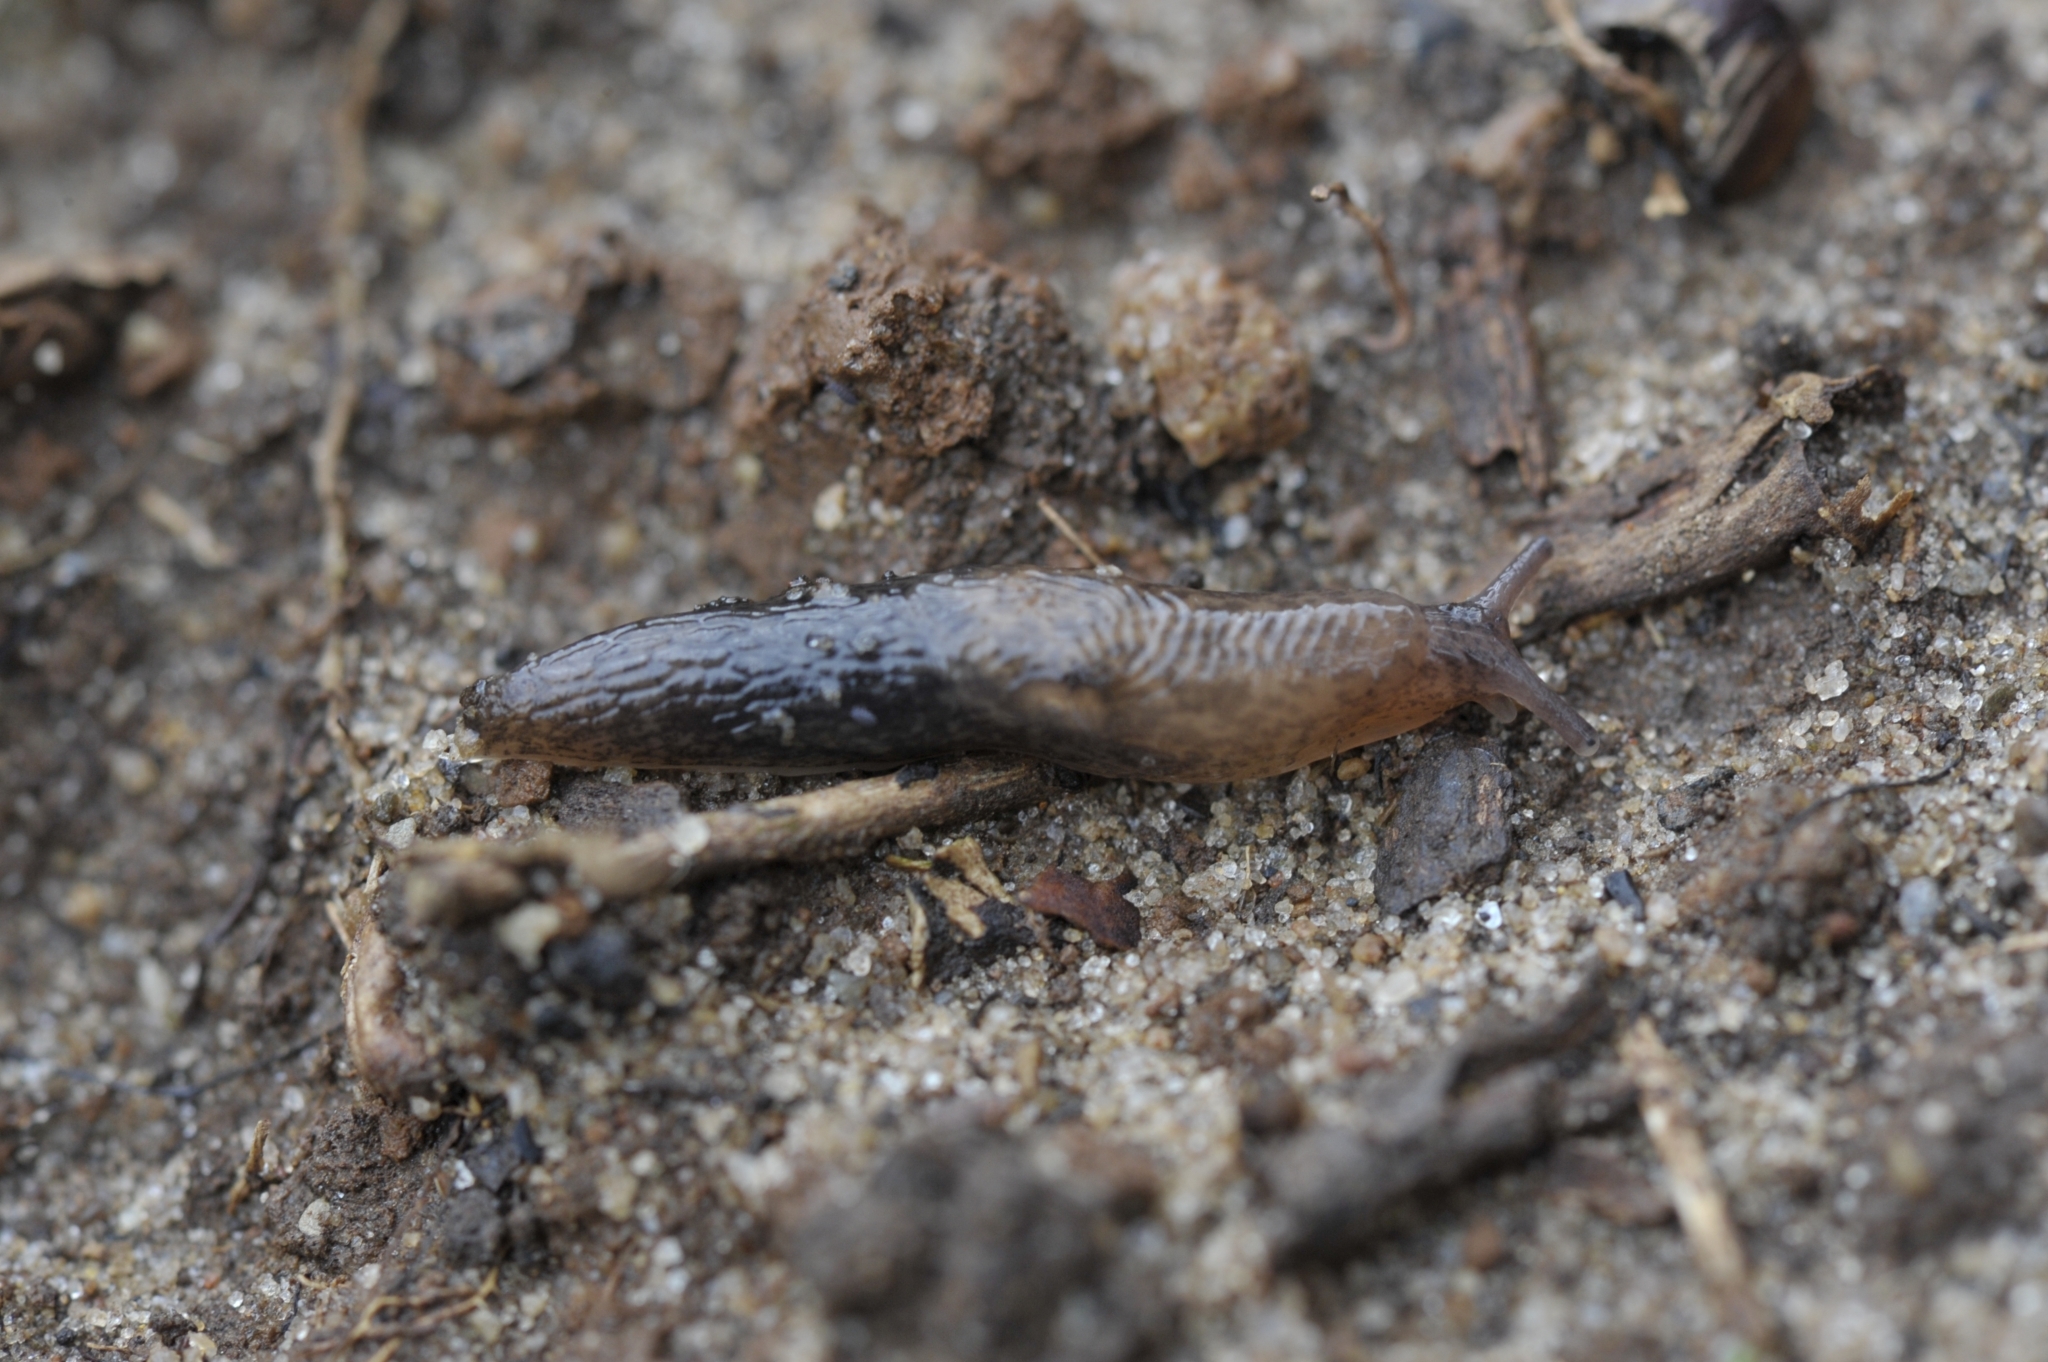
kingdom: Animalia
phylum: Mollusca
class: Gastropoda
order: Stylommatophora
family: Agriolimacidae
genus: Deroceras
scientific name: Deroceras laeve
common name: Marsh slug
